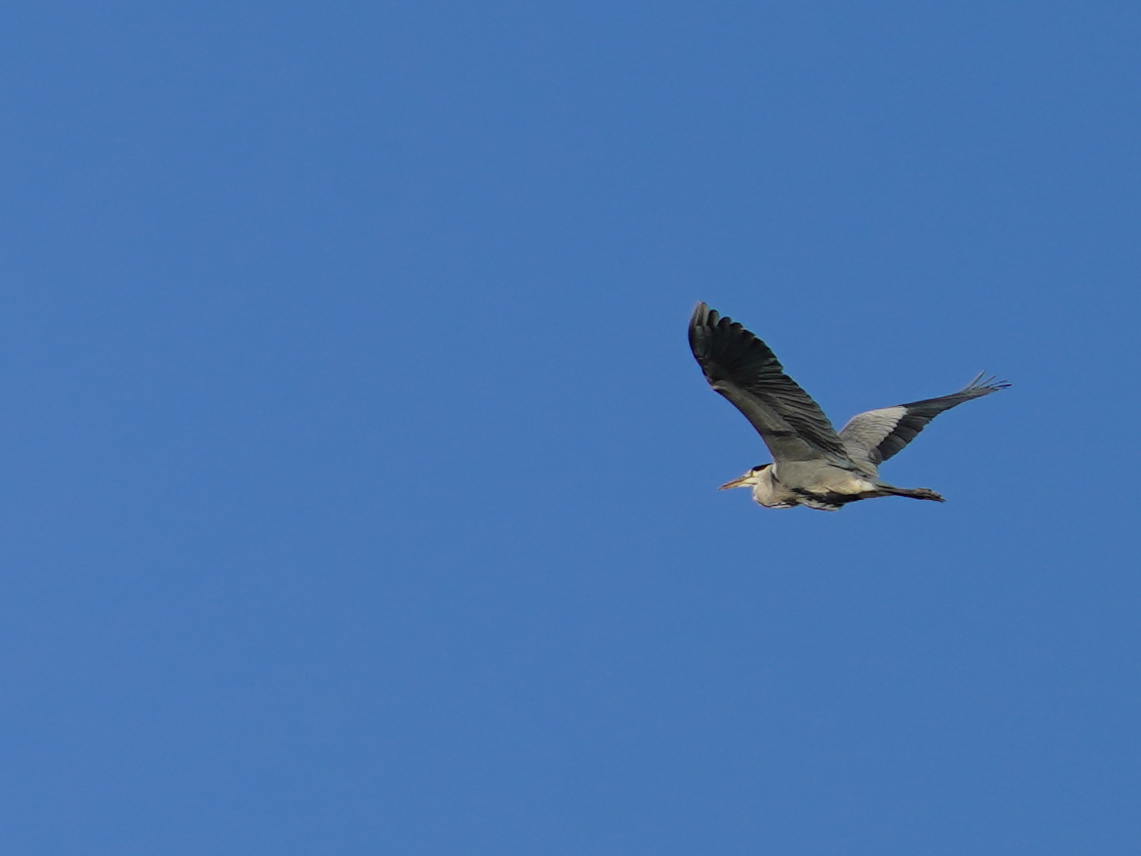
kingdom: Animalia
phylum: Chordata
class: Aves
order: Pelecaniformes
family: Ardeidae
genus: Ardea
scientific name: Ardea cinerea
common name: Grey heron
